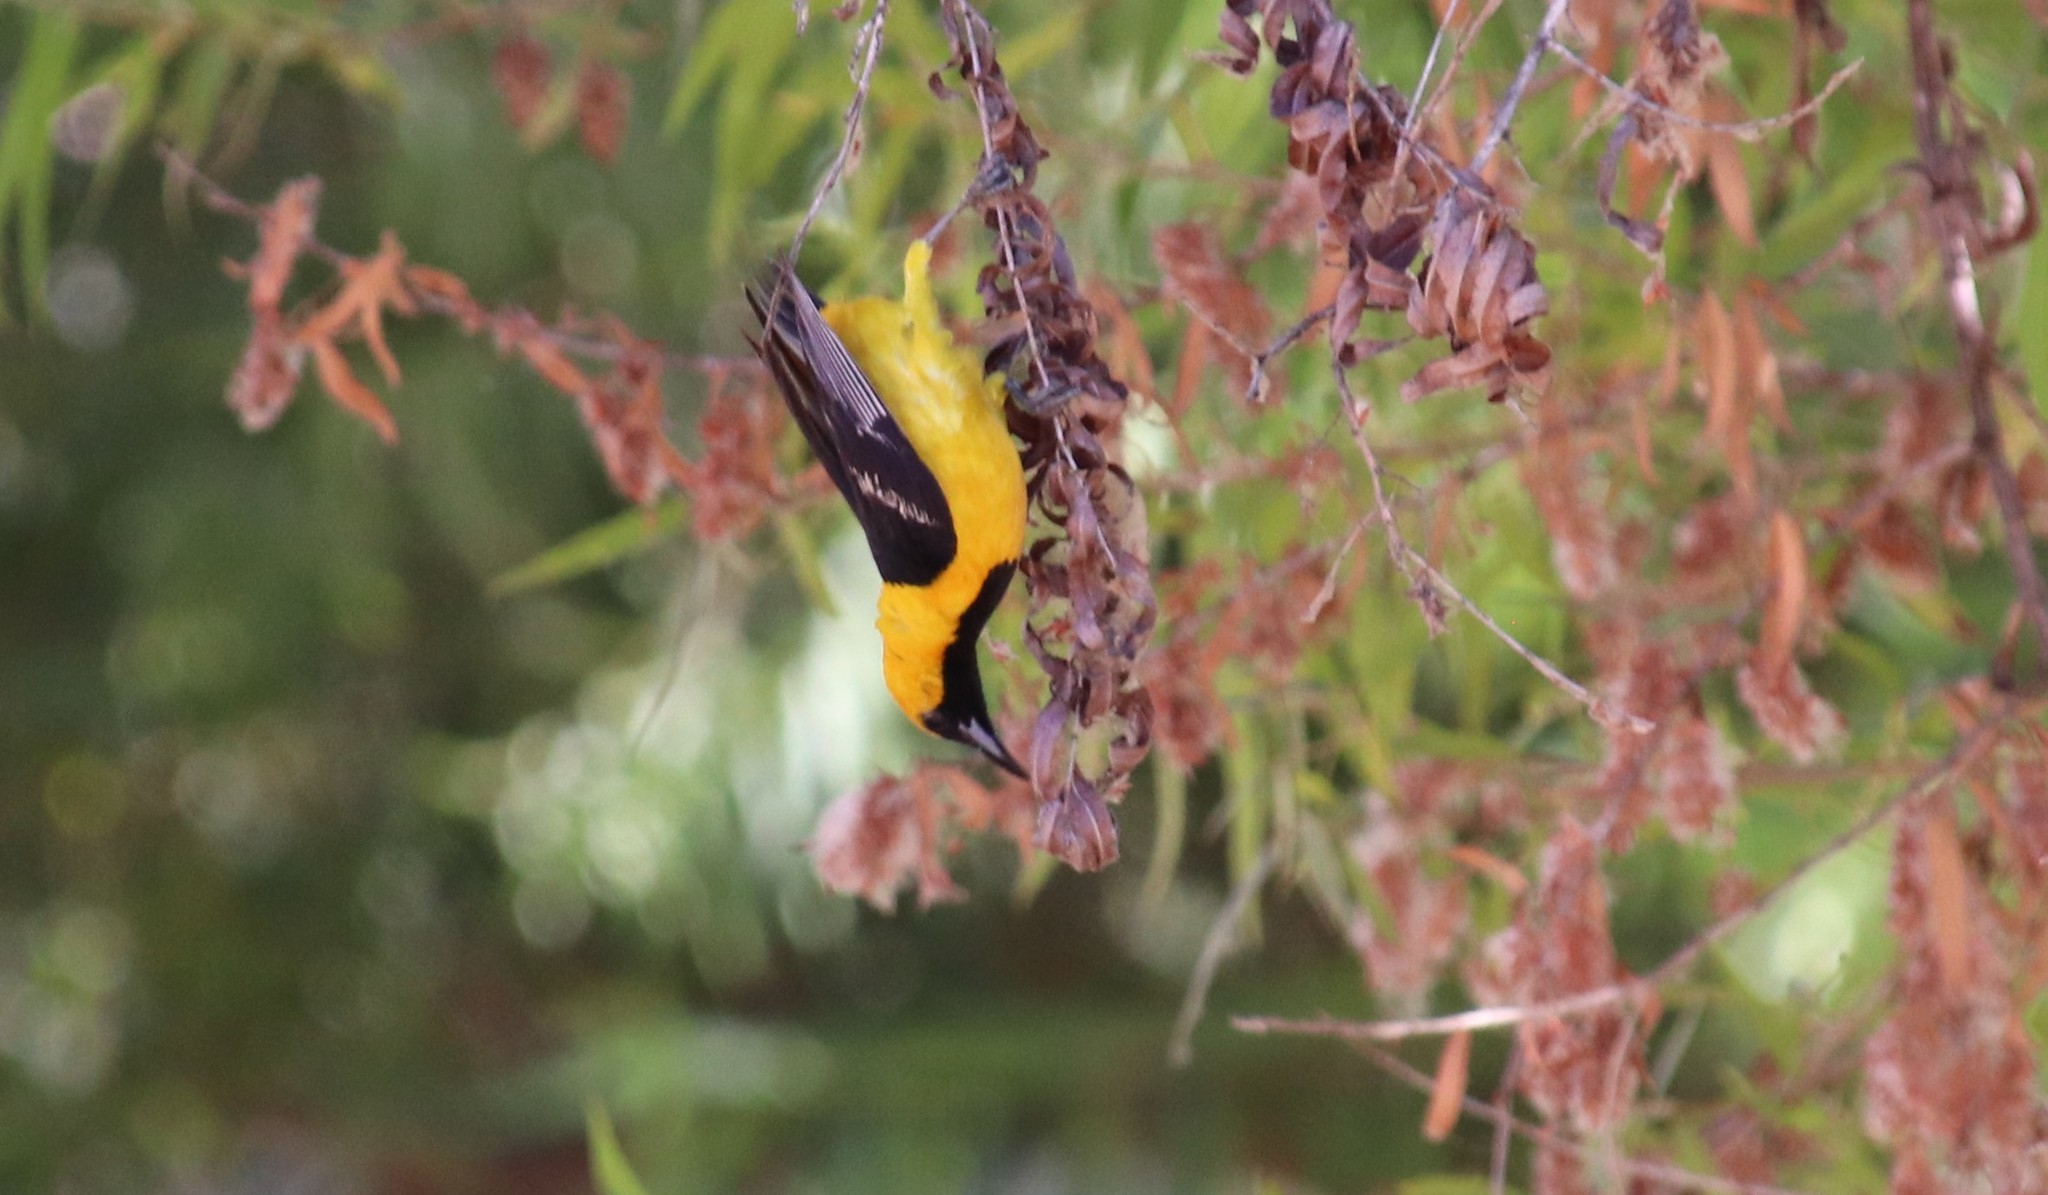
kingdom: Animalia
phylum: Chordata
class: Aves
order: Passeriformes
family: Icteridae
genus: Icterus
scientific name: Icterus cucullatus
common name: Hooded oriole
